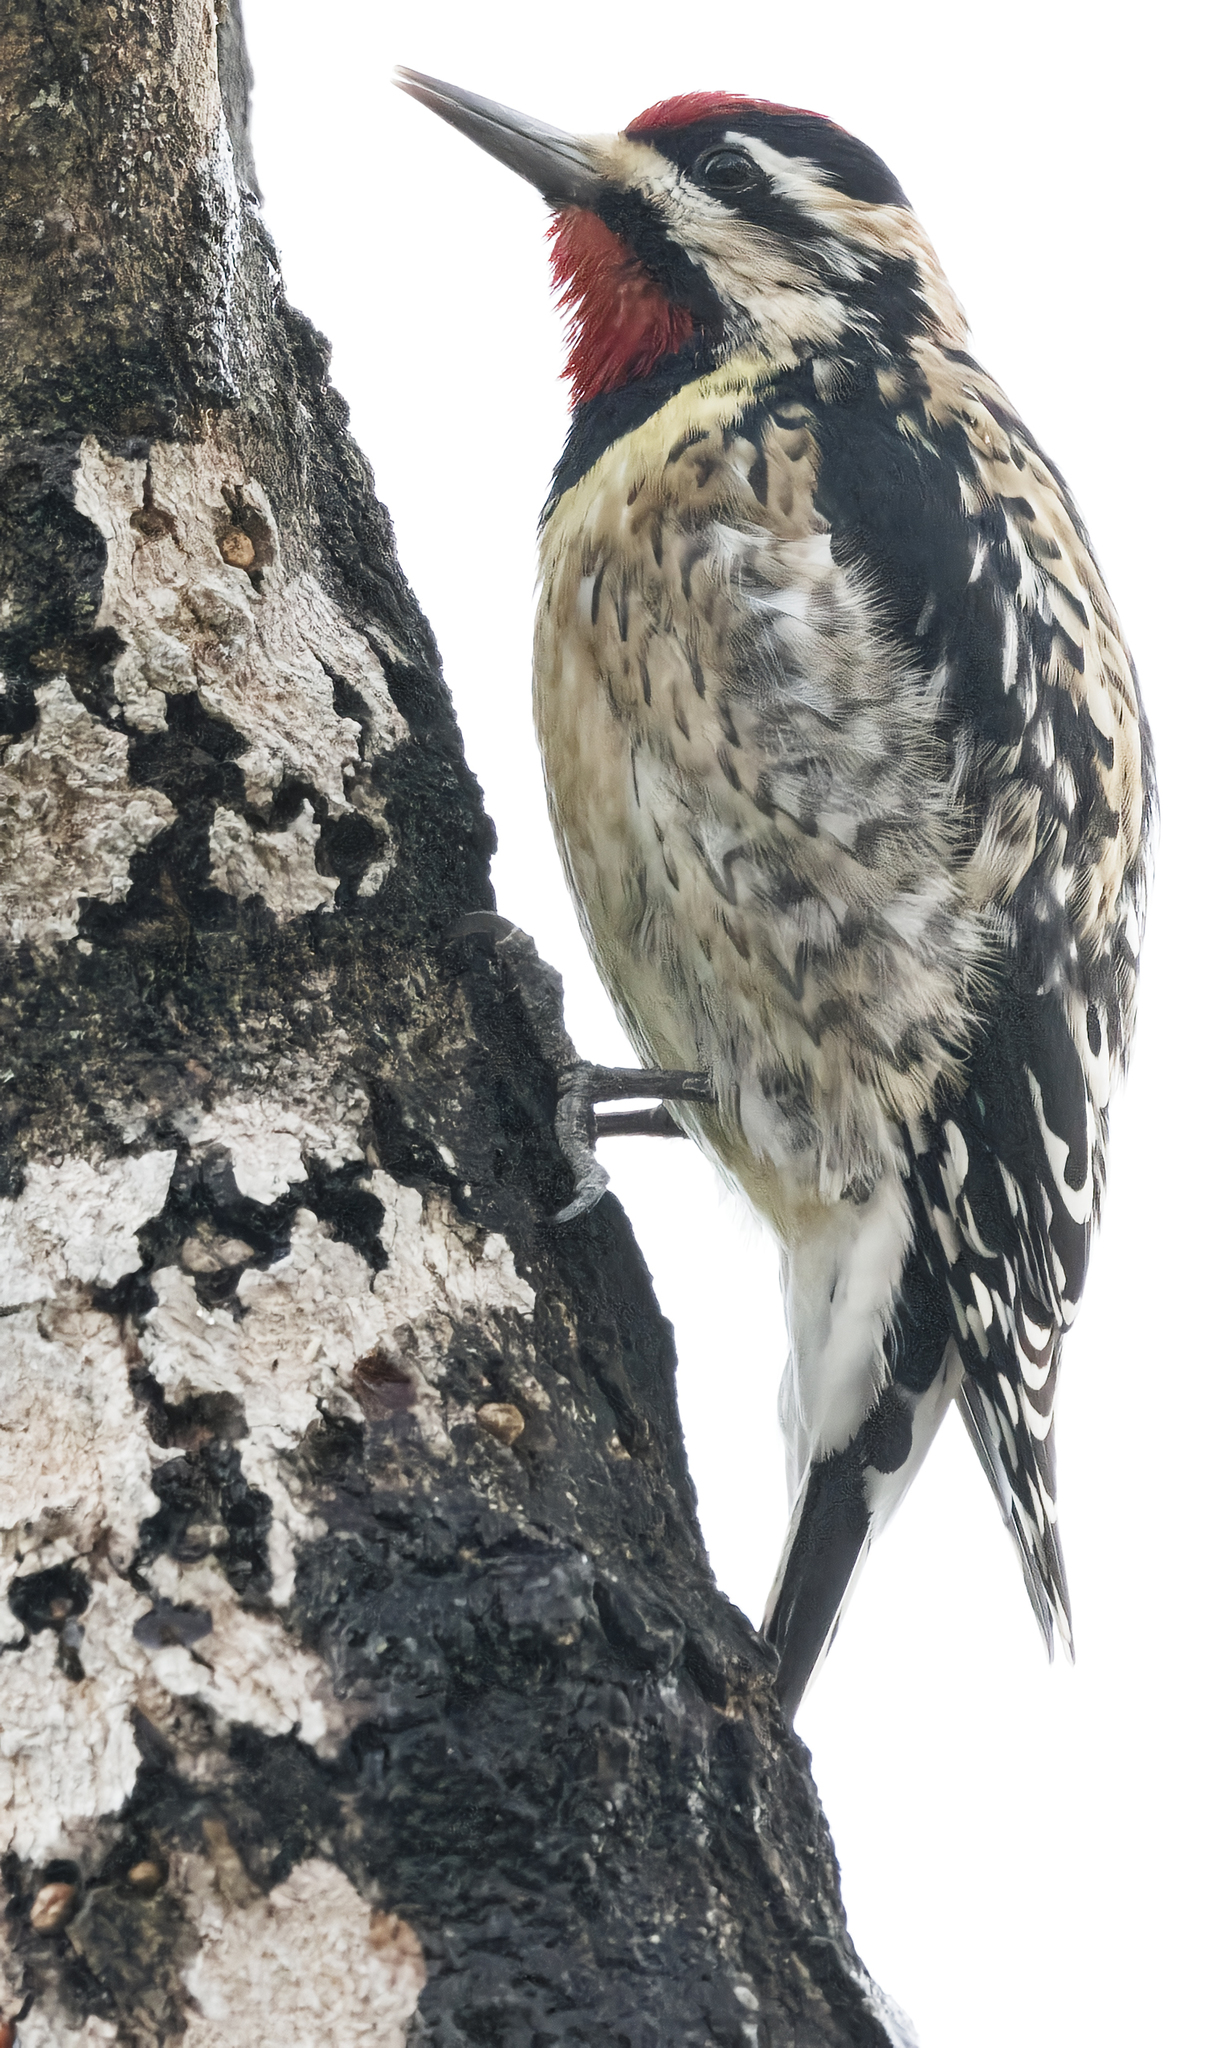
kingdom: Animalia
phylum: Chordata
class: Aves
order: Piciformes
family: Picidae
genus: Sphyrapicus
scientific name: Sphyrapicus varius
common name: Yellow-bellied sapsucker
